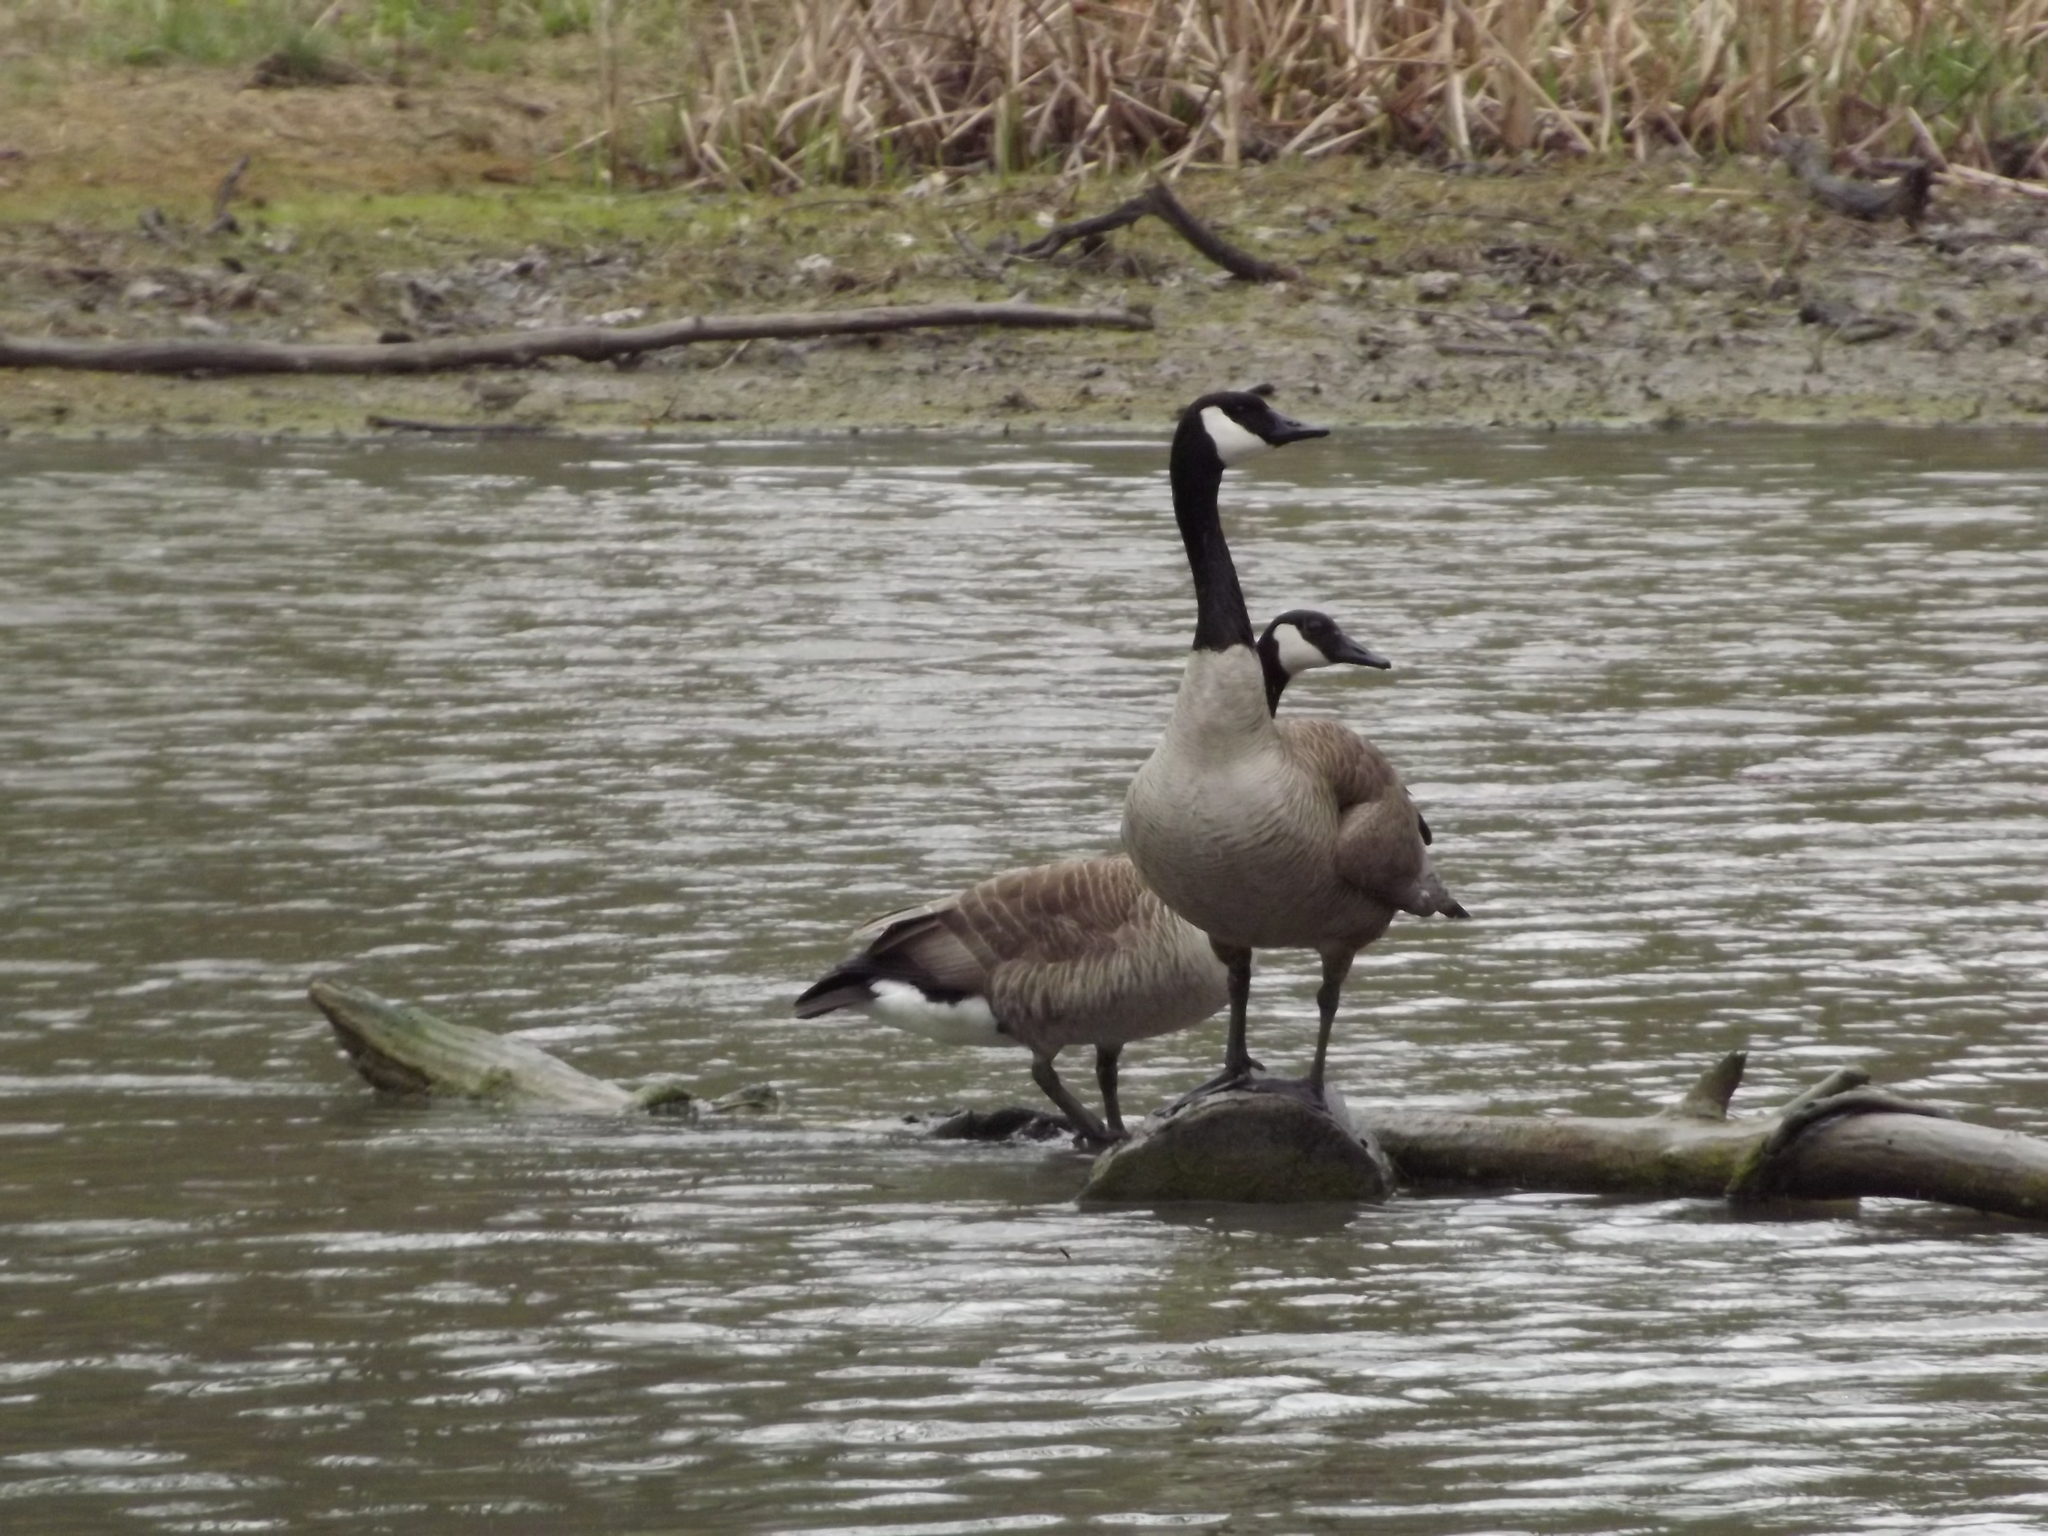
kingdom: Animalia
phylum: Chordata
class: Aves
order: Anseriformes
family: Anatidae
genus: Branta
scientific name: Branta canadensis
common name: Canada goose
